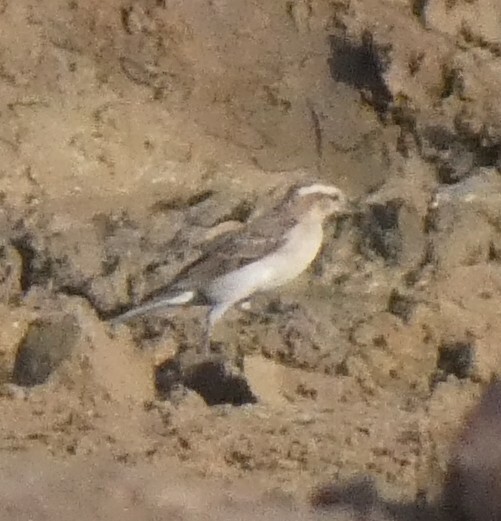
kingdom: Animalia
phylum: Chordata
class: Aves
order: Passeriformes
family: Passeridae
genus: Gymnoris
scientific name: Gymnoris superciliaris
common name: Yellow-throated petronia
